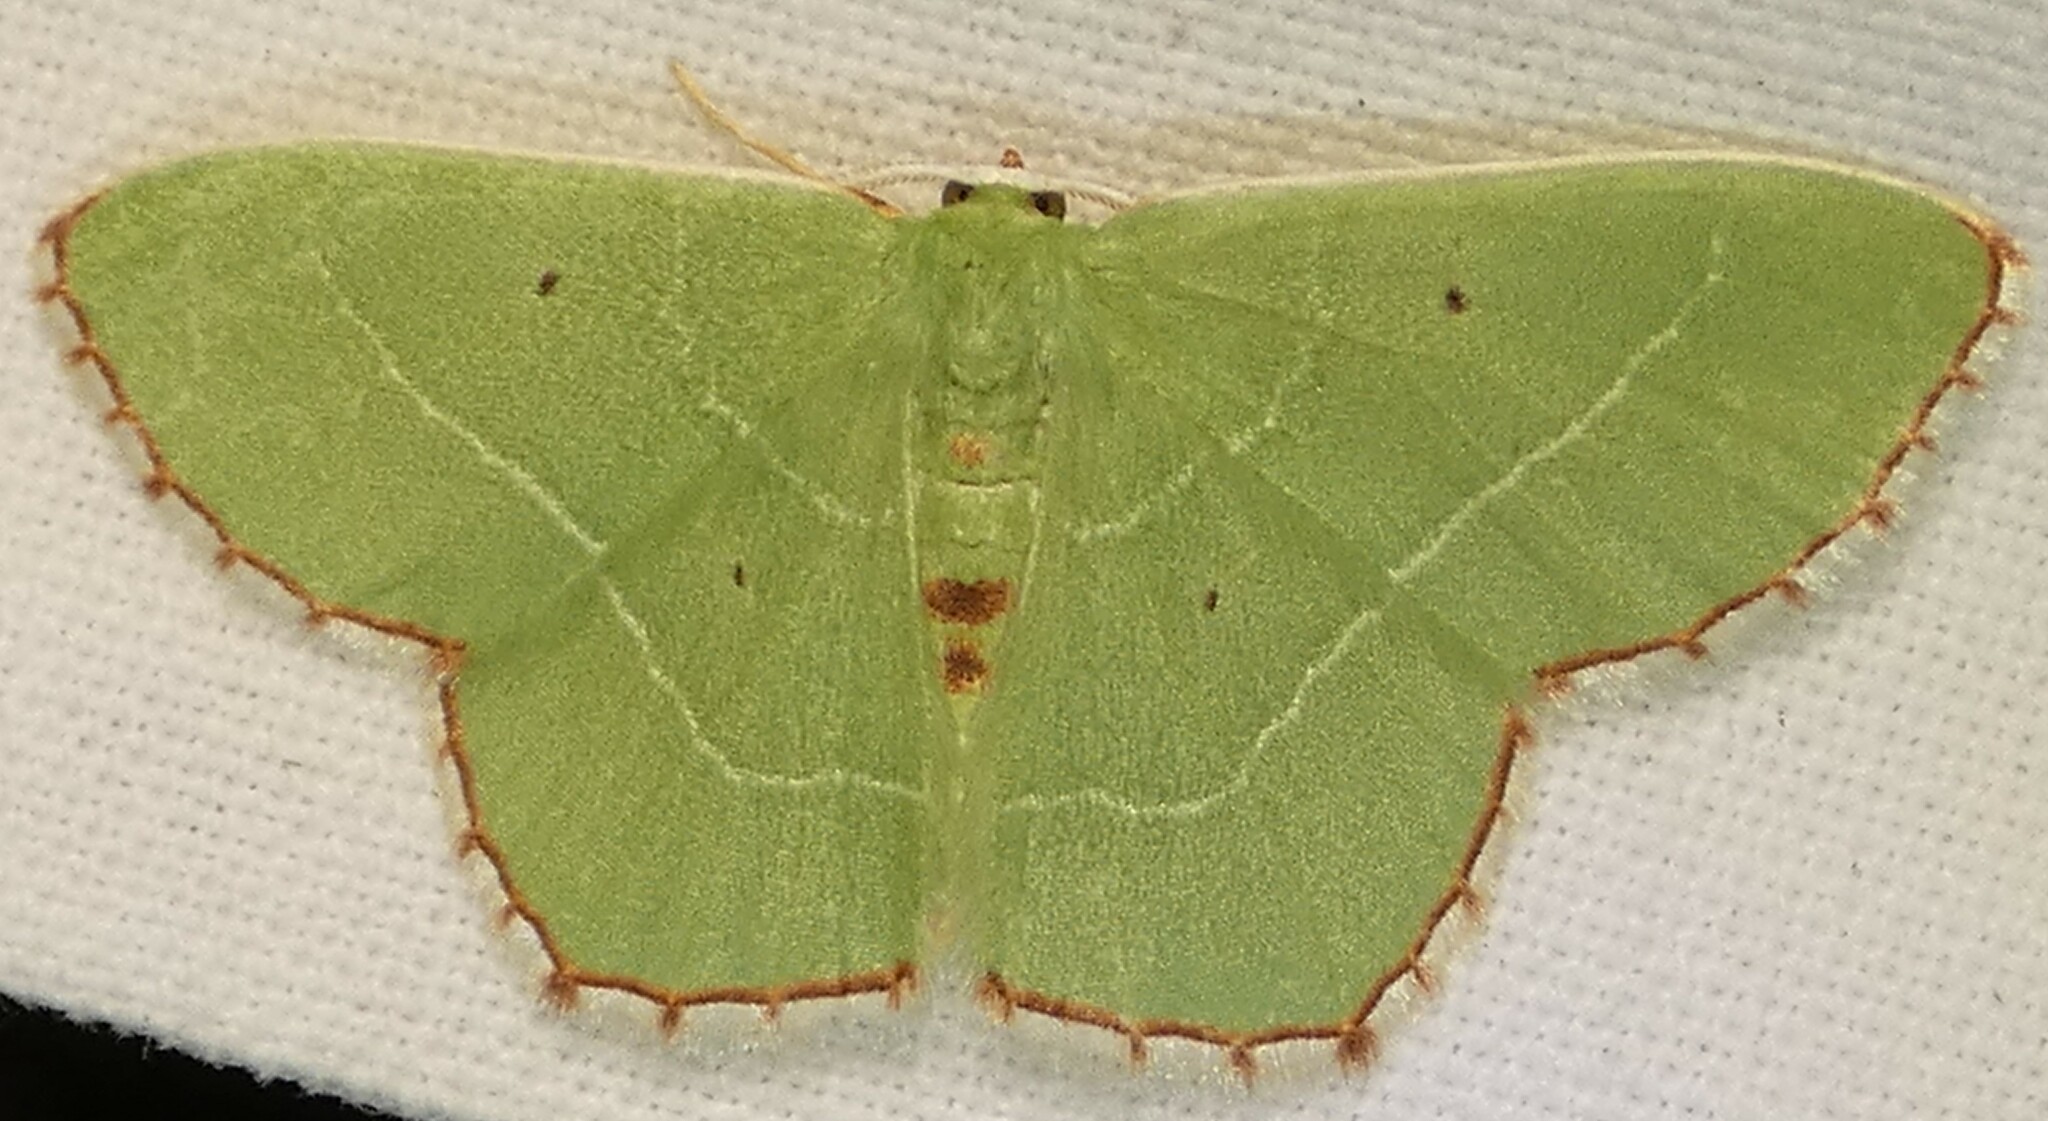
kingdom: Animalia
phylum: Arthropoda
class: Insecta
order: Lepidoptera
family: Geometridae
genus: Nemoria
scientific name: Nemoria saturiba
